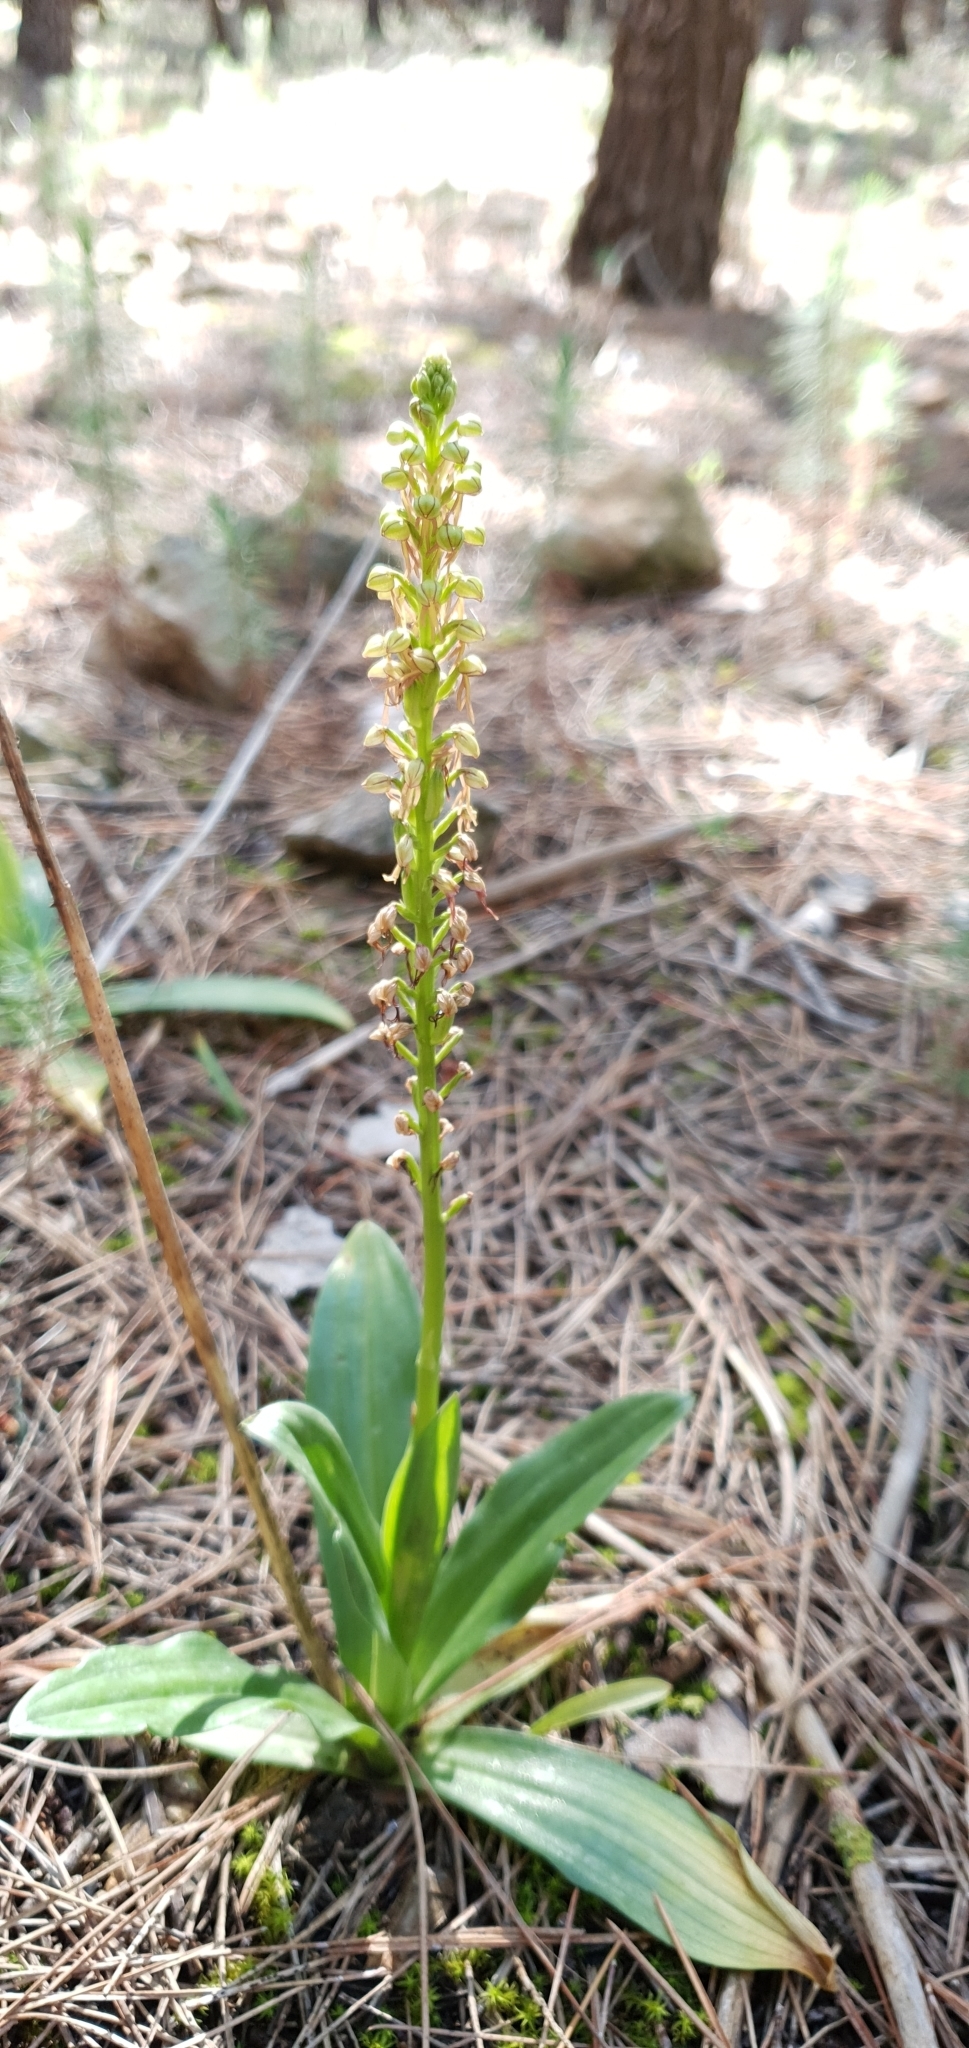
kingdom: Plantae
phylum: Tracheophyta
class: Liliopsida
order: Asparagales
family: Orchidaceae
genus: Orchis
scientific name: Orchis anthropophora
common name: Man orchid
